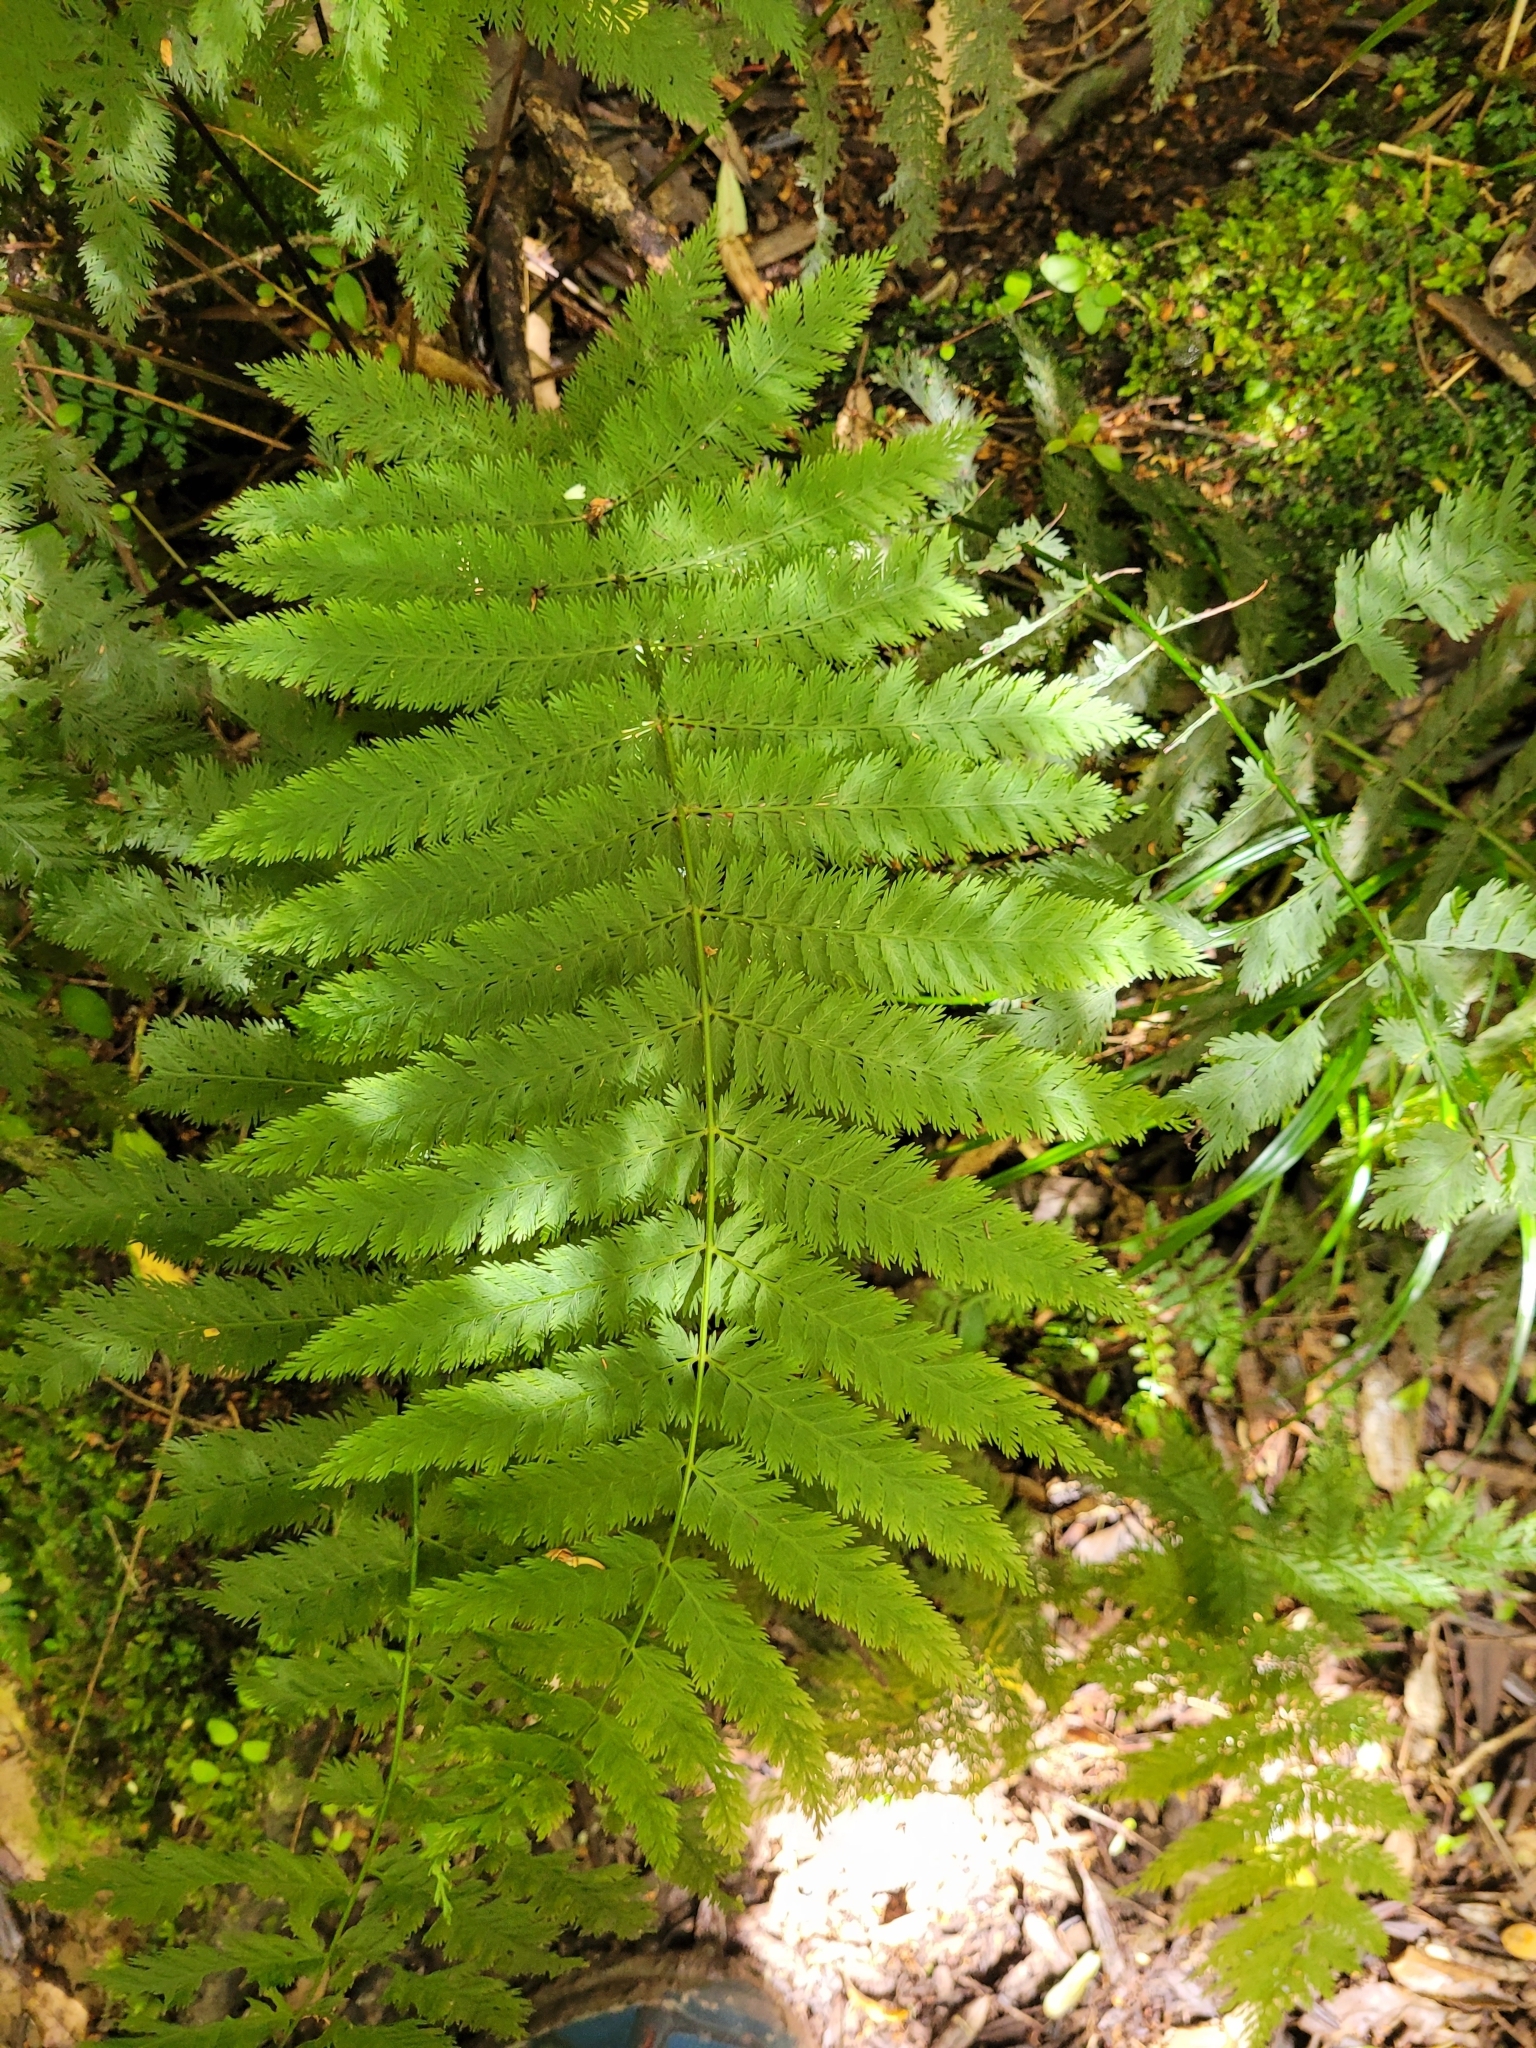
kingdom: Plantae
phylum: Tracheophyta
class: Polypodiopsida
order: Osmundales
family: Osmundaceae
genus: Leptopteris
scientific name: Leptopteris hymenophylloides
